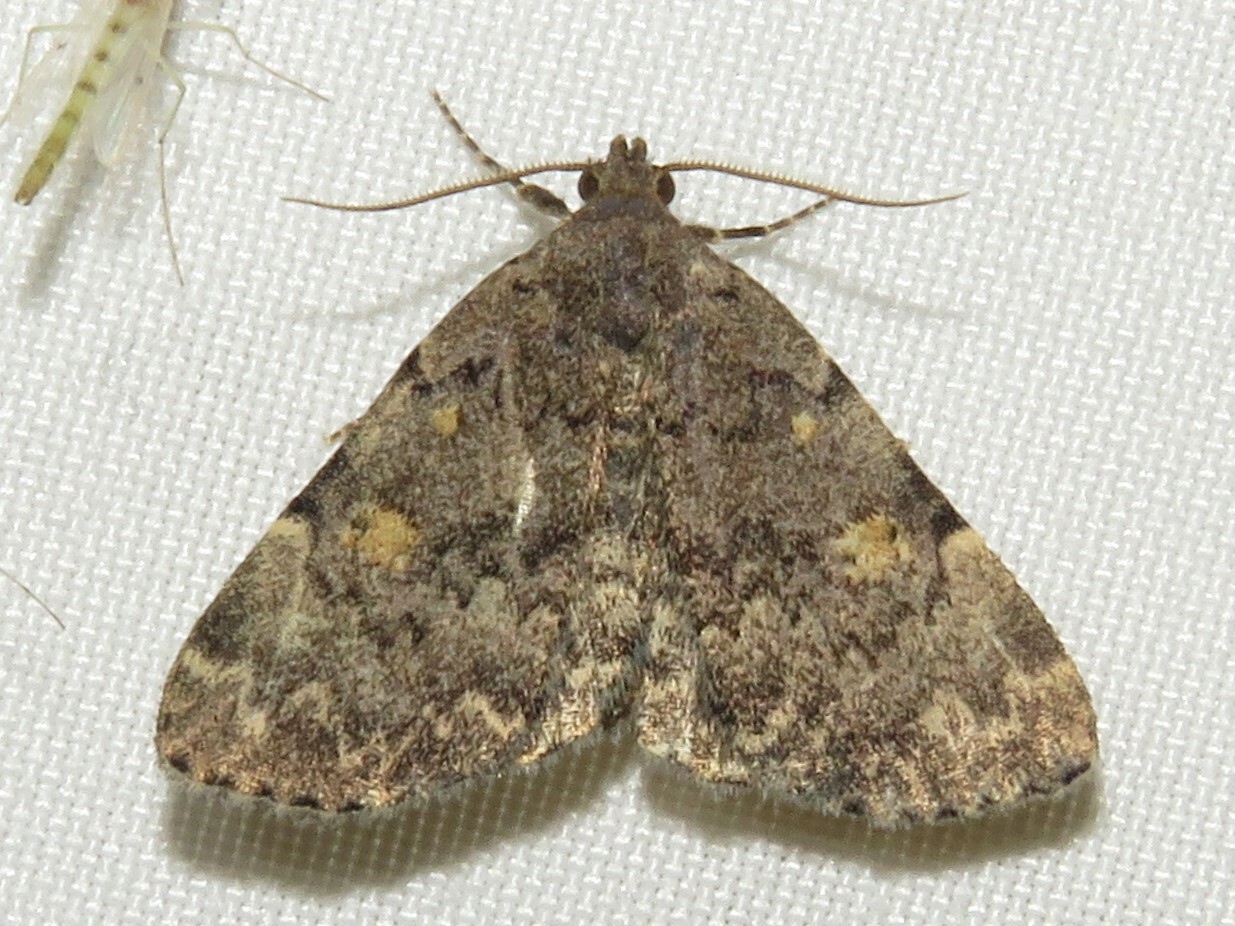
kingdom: Animalia
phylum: Arthropoda
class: Insecta
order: Lepidoptera
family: Erebidae
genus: Idia
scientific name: Idia aemula
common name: Common idia moth
